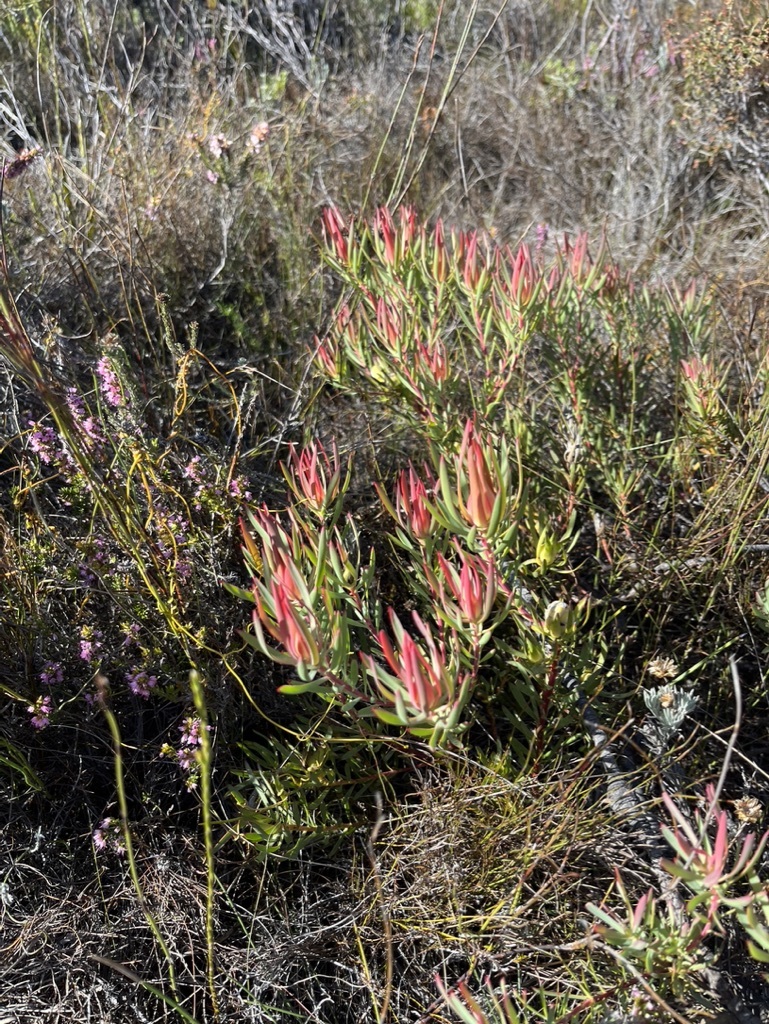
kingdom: Plantae
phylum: Tracheophyta
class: Magnoliopsida
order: Proteales
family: Proteaceae
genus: Leucadendron
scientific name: Leucadendron salignum
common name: Common sunshine conebush
